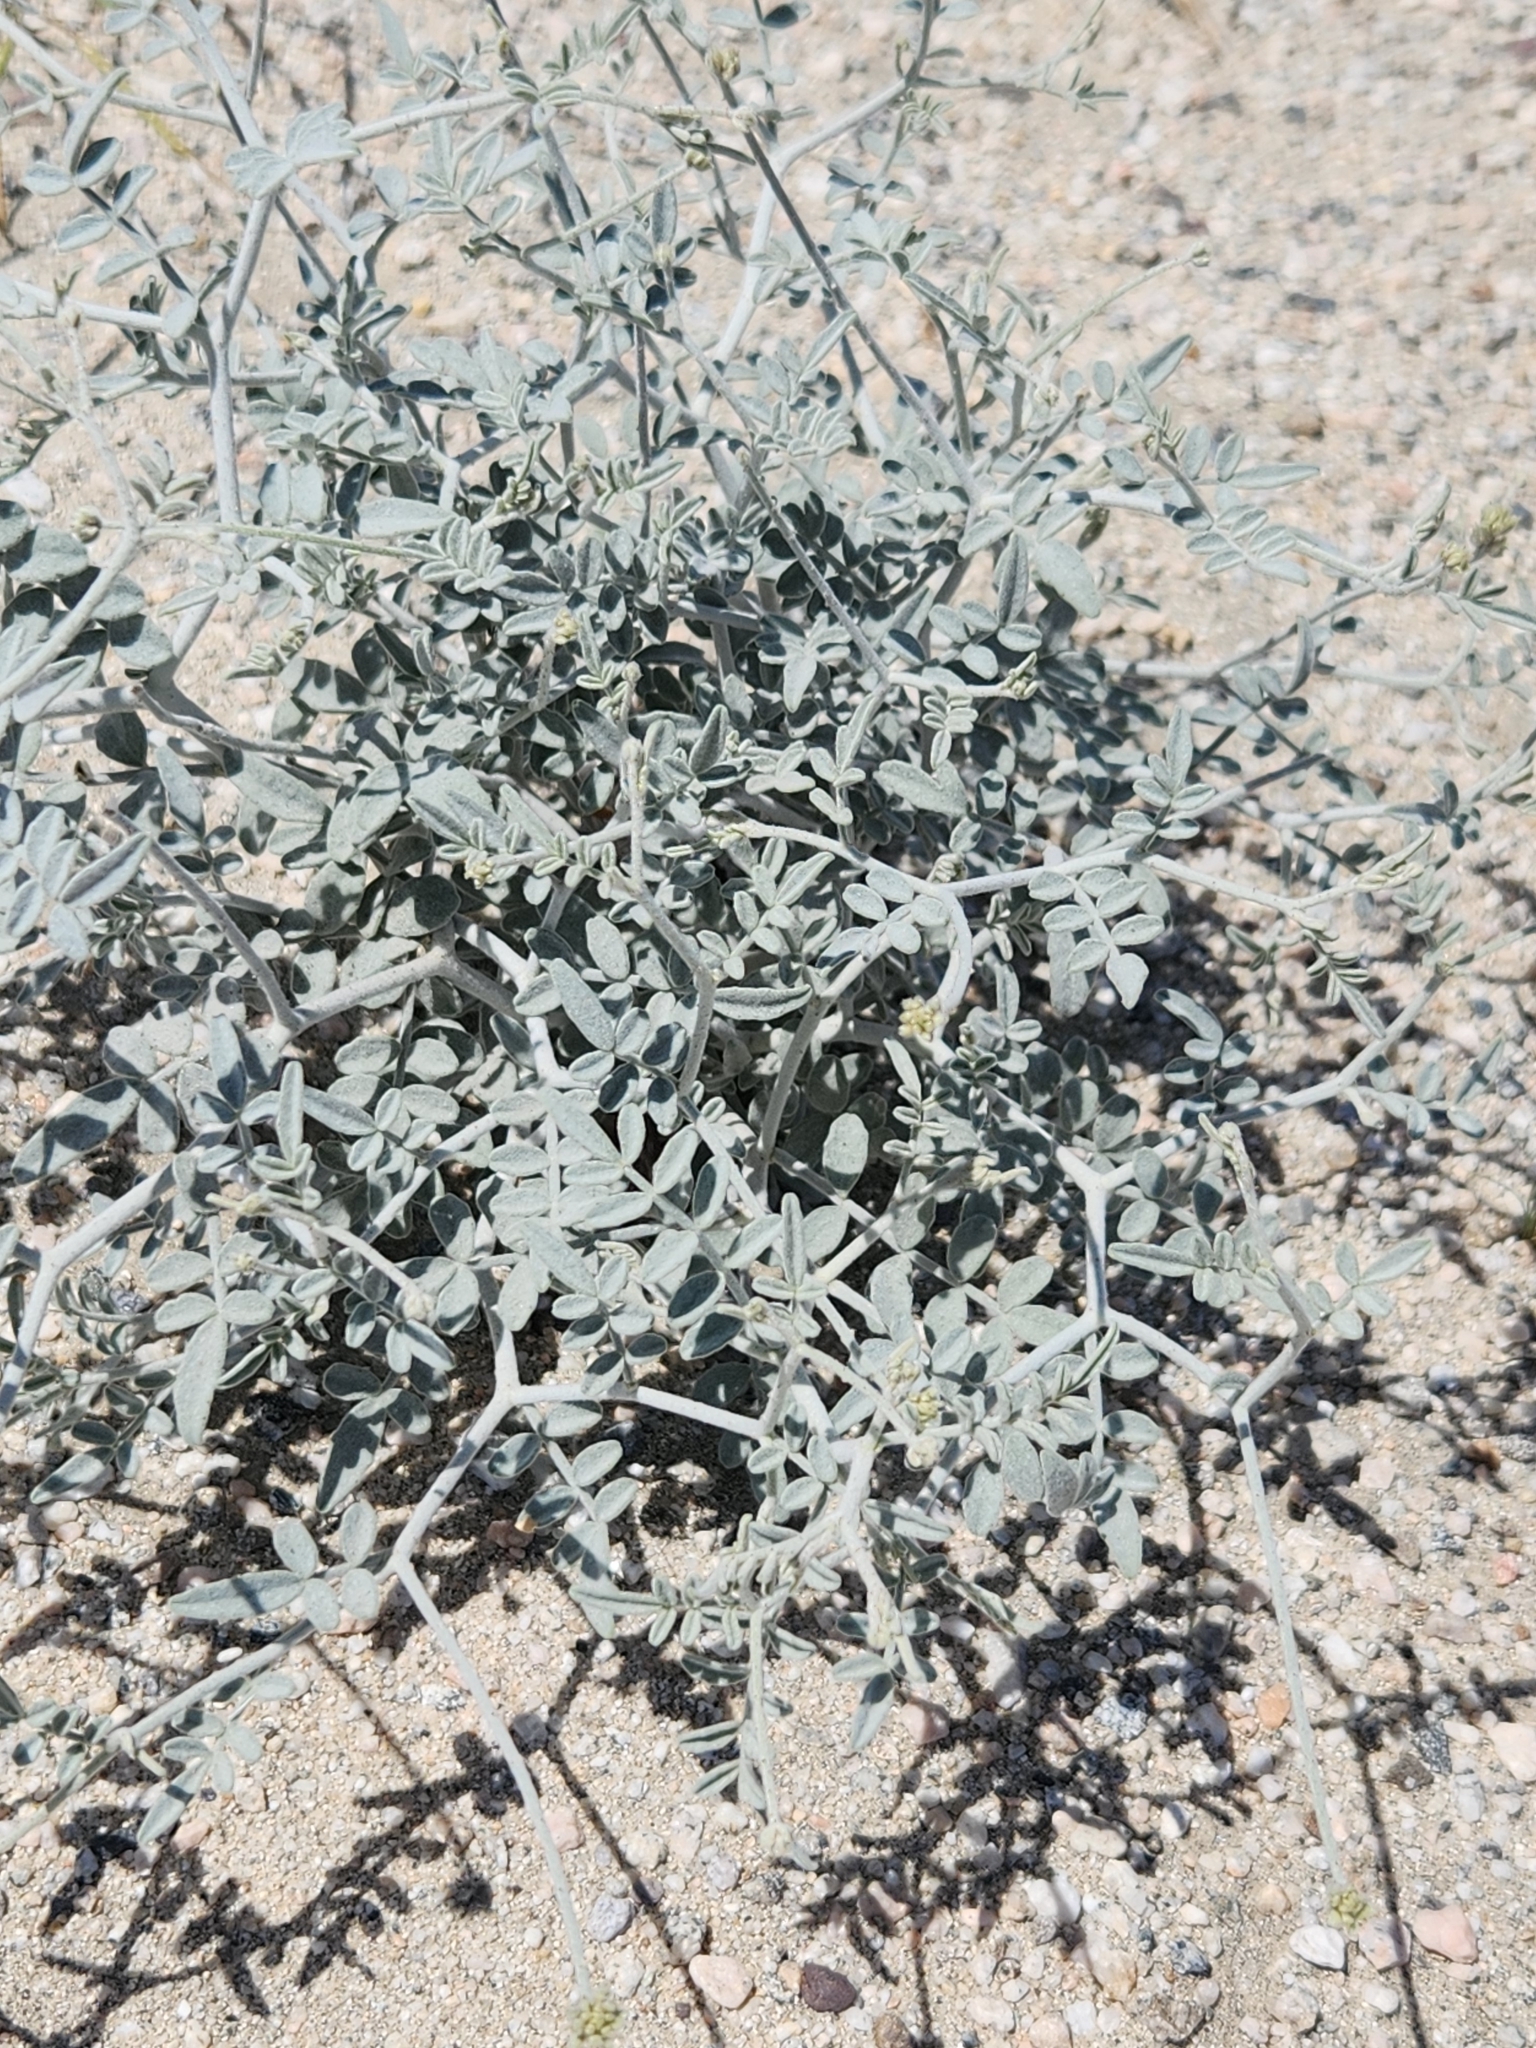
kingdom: Plantae
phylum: Tracheophyta
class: Magnoliopsida
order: Fabales
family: Fabaceae
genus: Psorothamnus
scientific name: Psorothamnus emoryi
